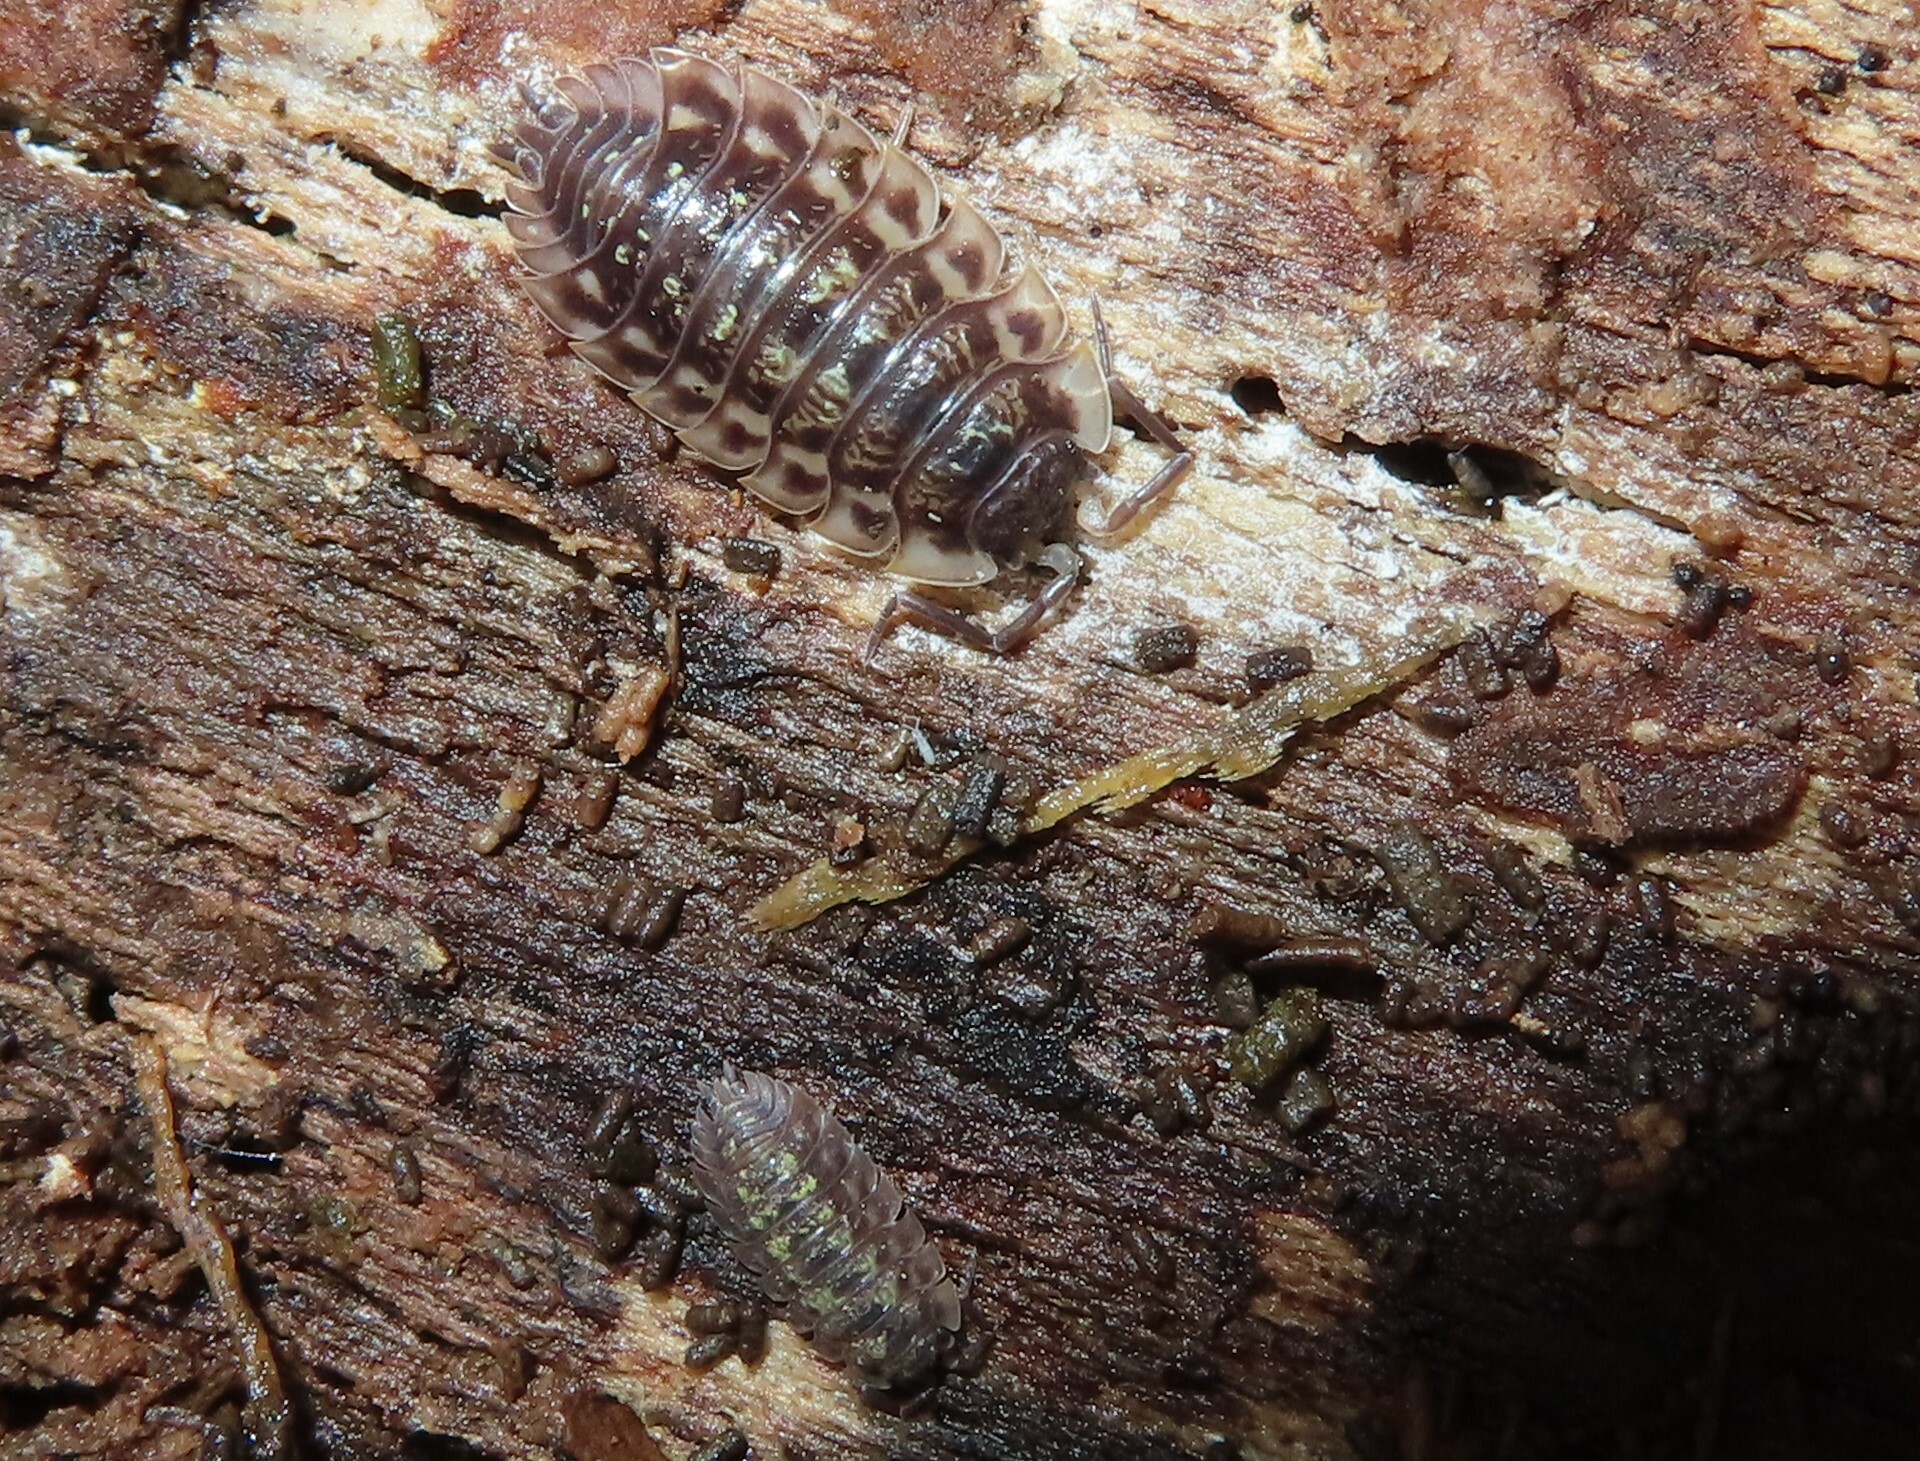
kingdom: Animalia
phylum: Arthropoda
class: Malacostraca
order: Isopoda
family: Oniscidae
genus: Oniscus
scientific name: Oniscus asellus
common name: Common shiny woodlouse
